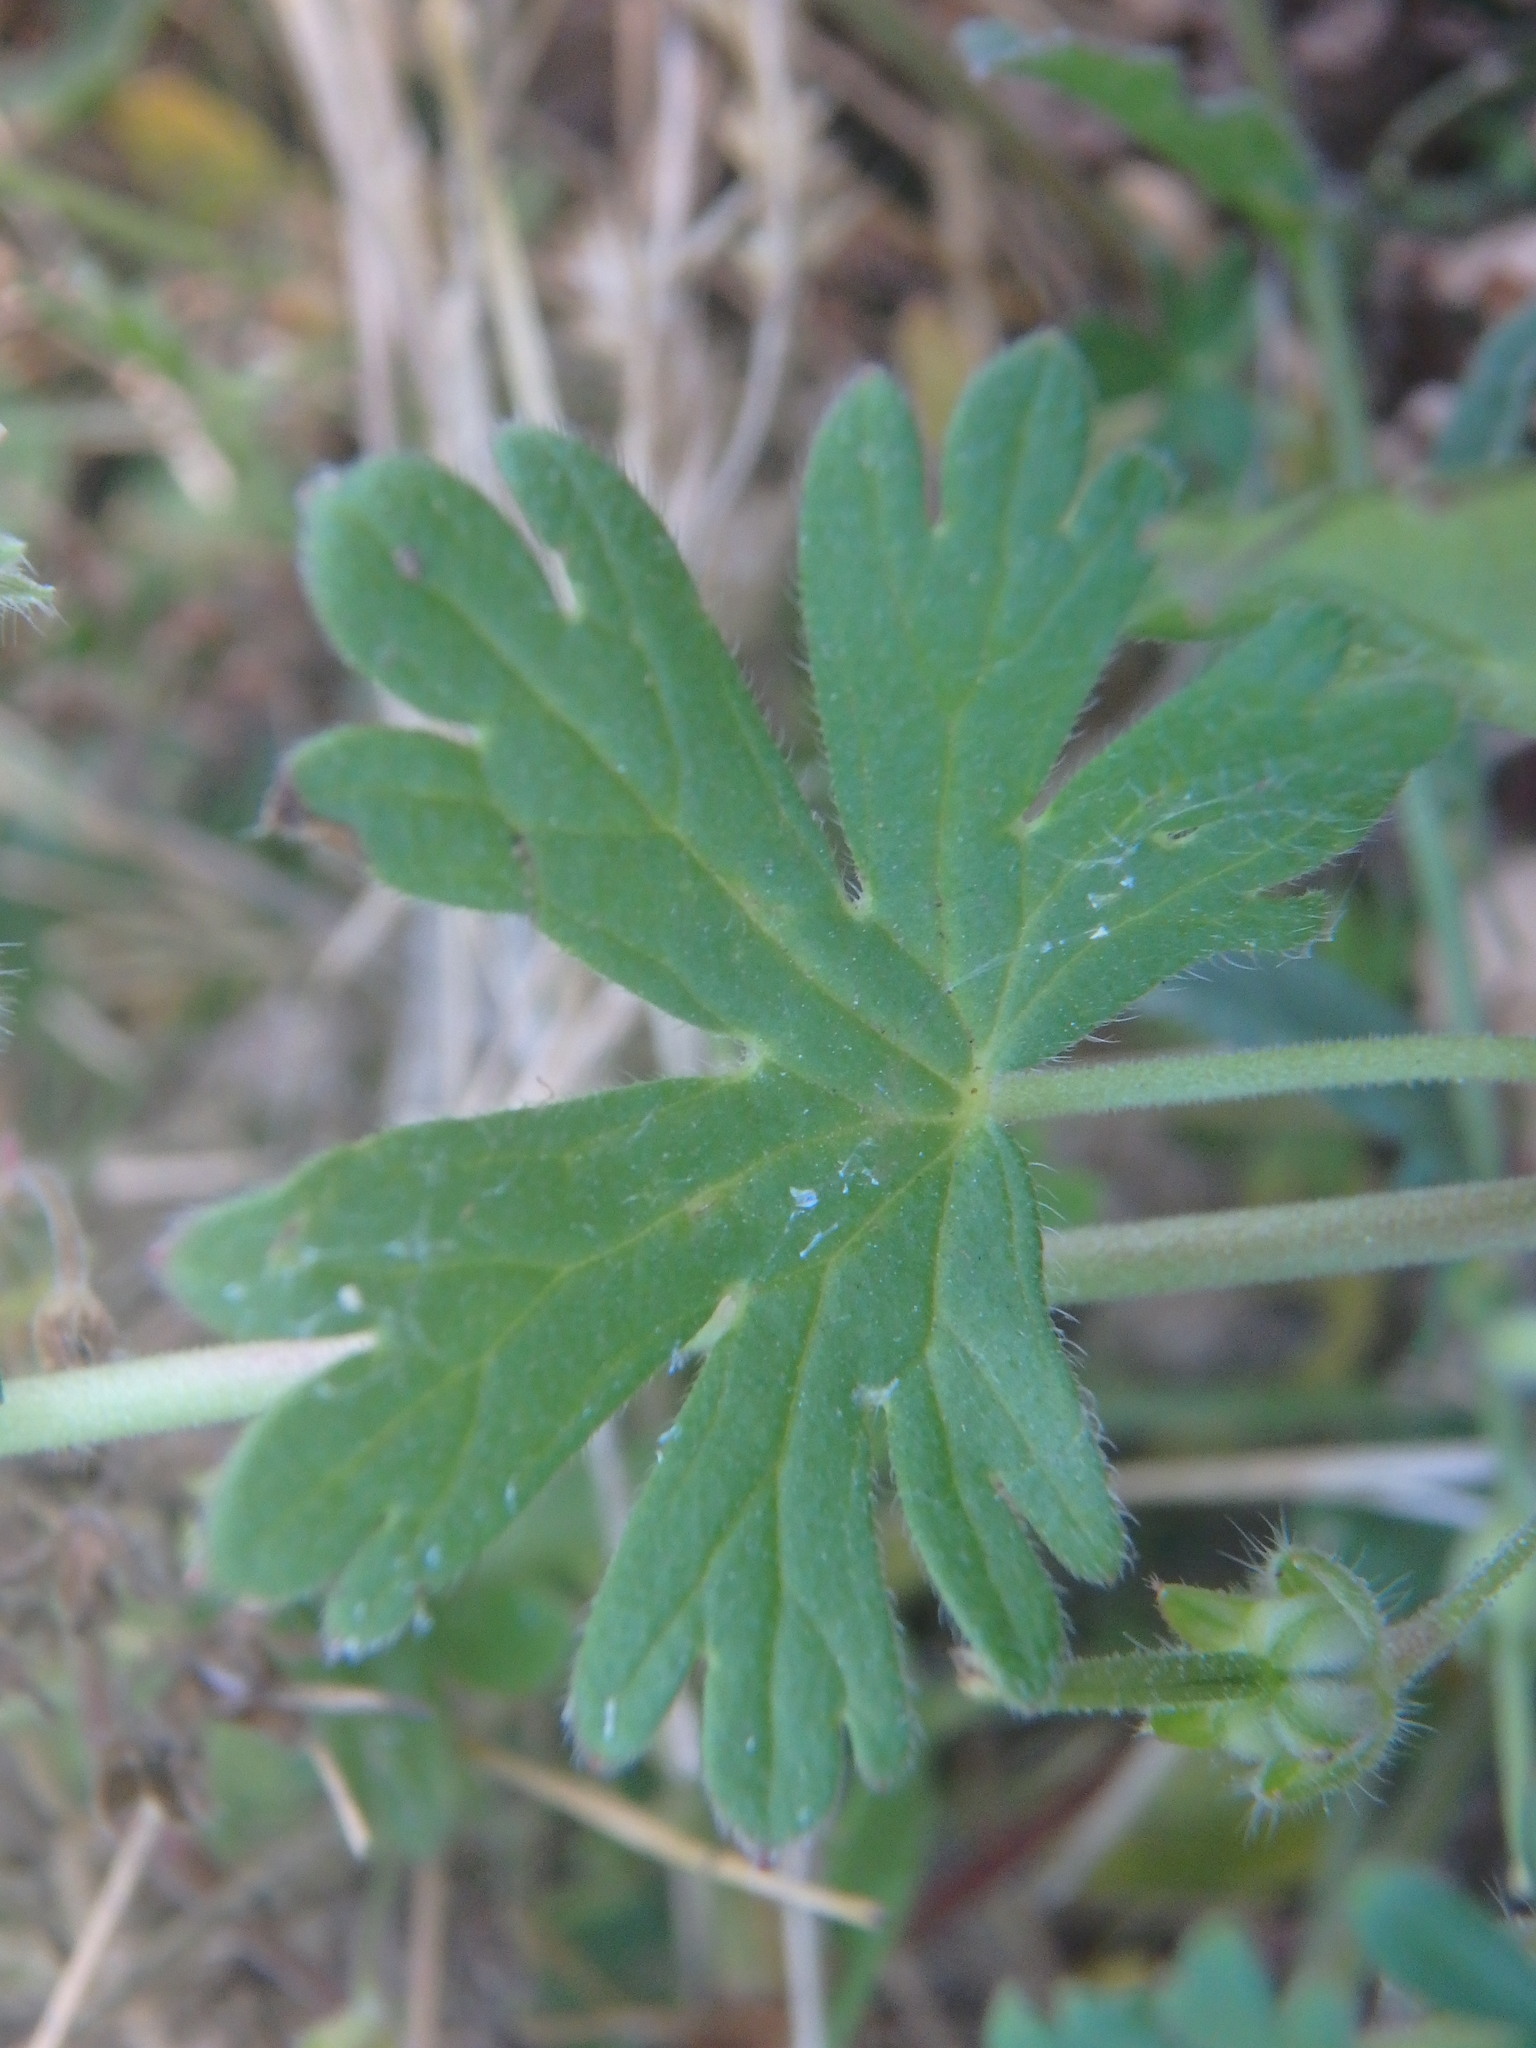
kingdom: Plantae
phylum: Tracheophyta
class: Magnoliopsida
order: Geraniales
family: Geraniaceae
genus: Geranium
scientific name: Geranium pusillum
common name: Small geranium
